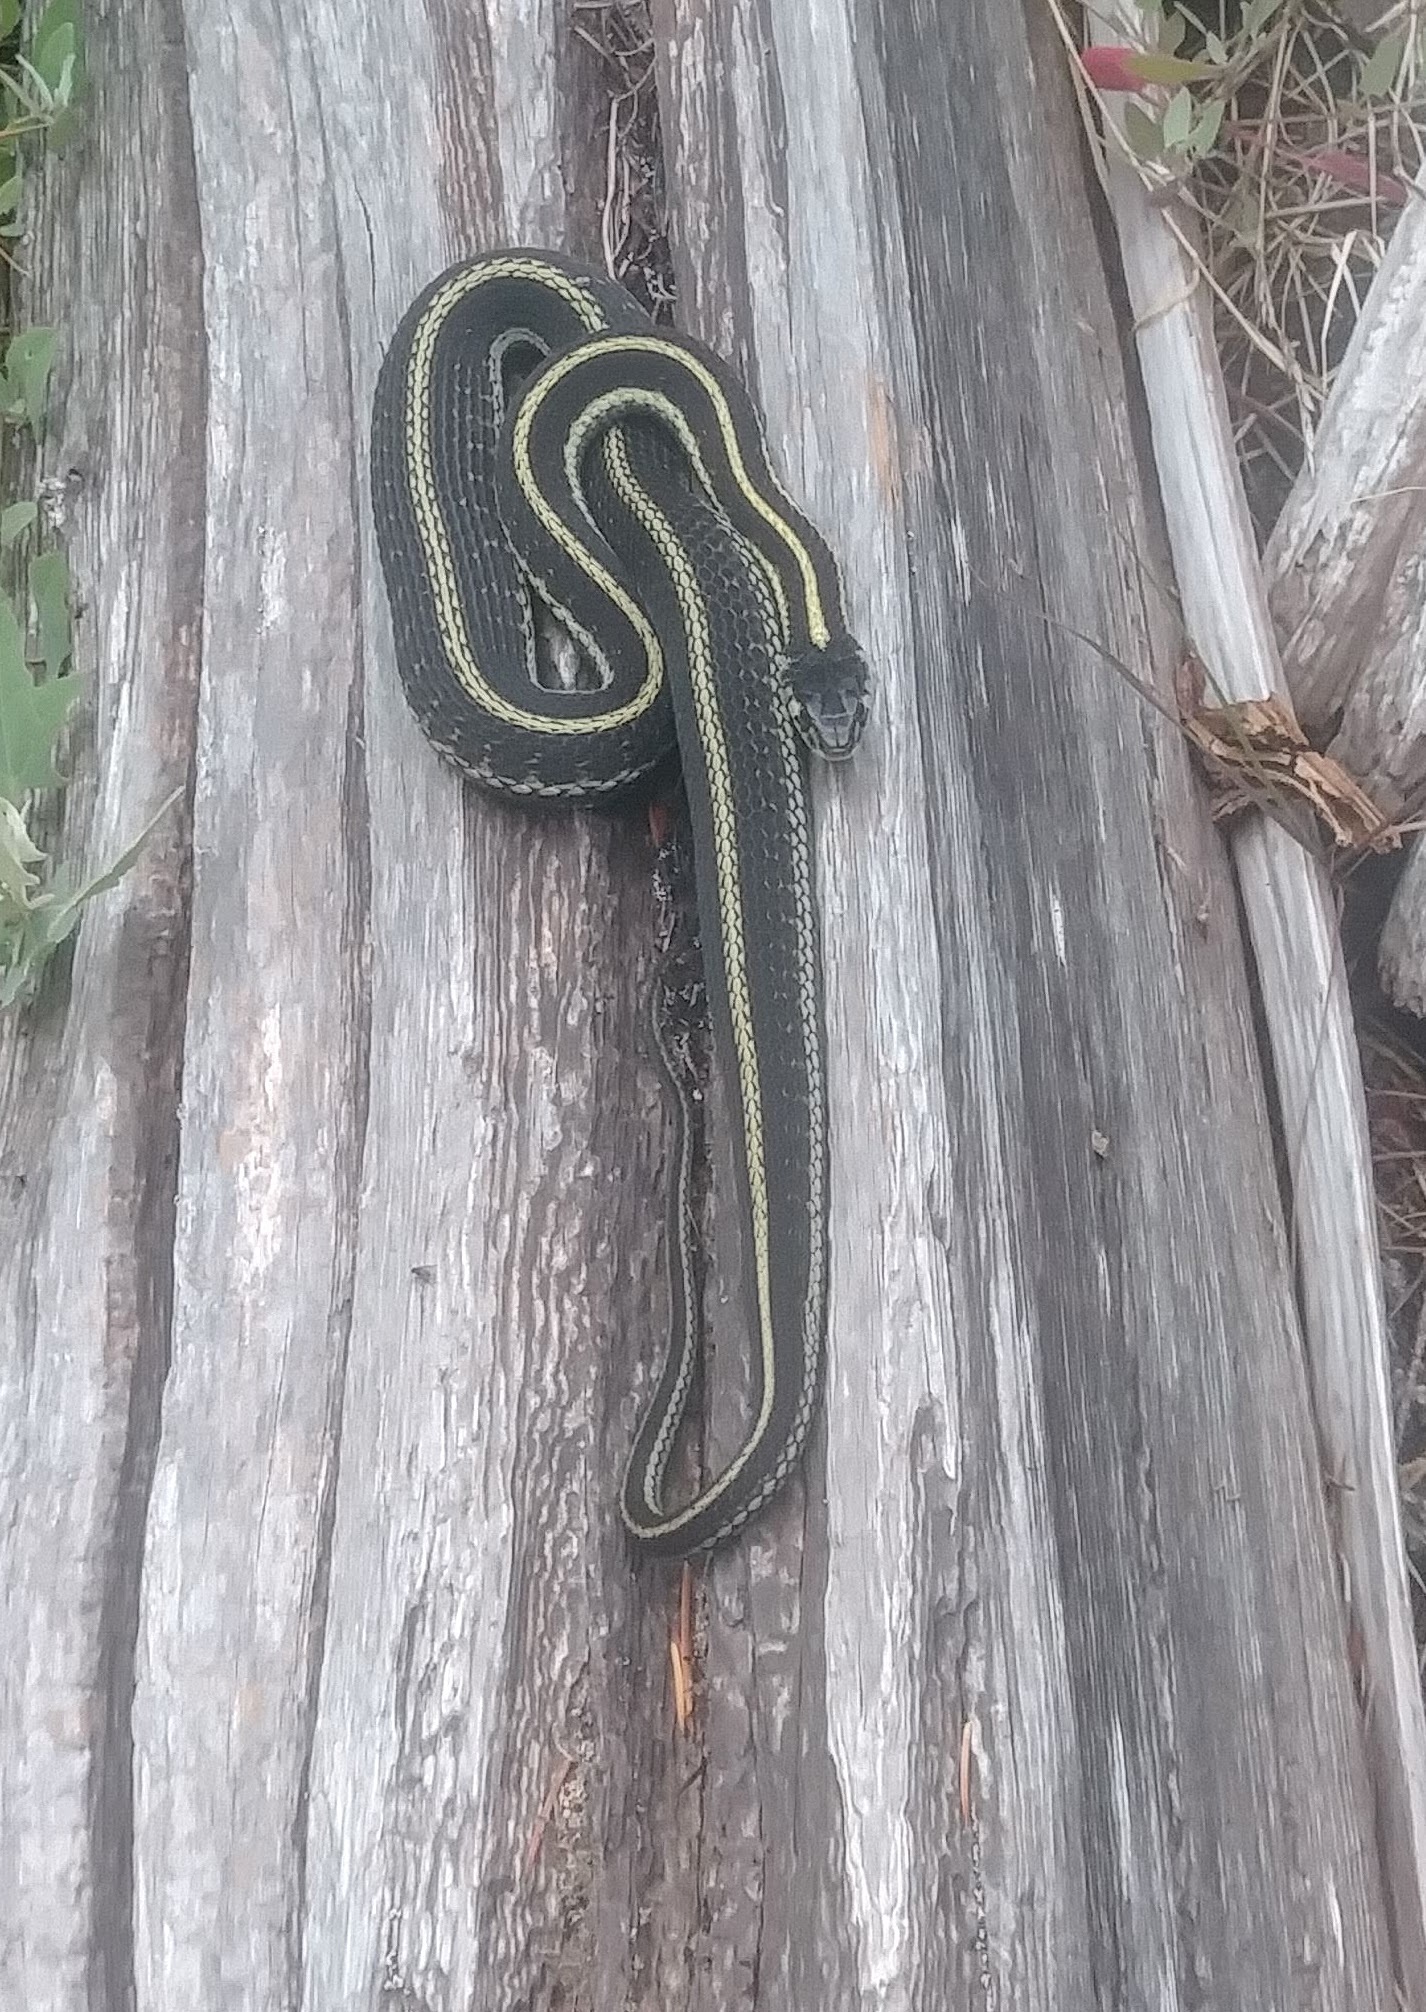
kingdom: Animalia
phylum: Chordata
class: Squamata
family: Colubridae
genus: Thamnophis
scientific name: Thamnophis sirtalis
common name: Common garter snake
